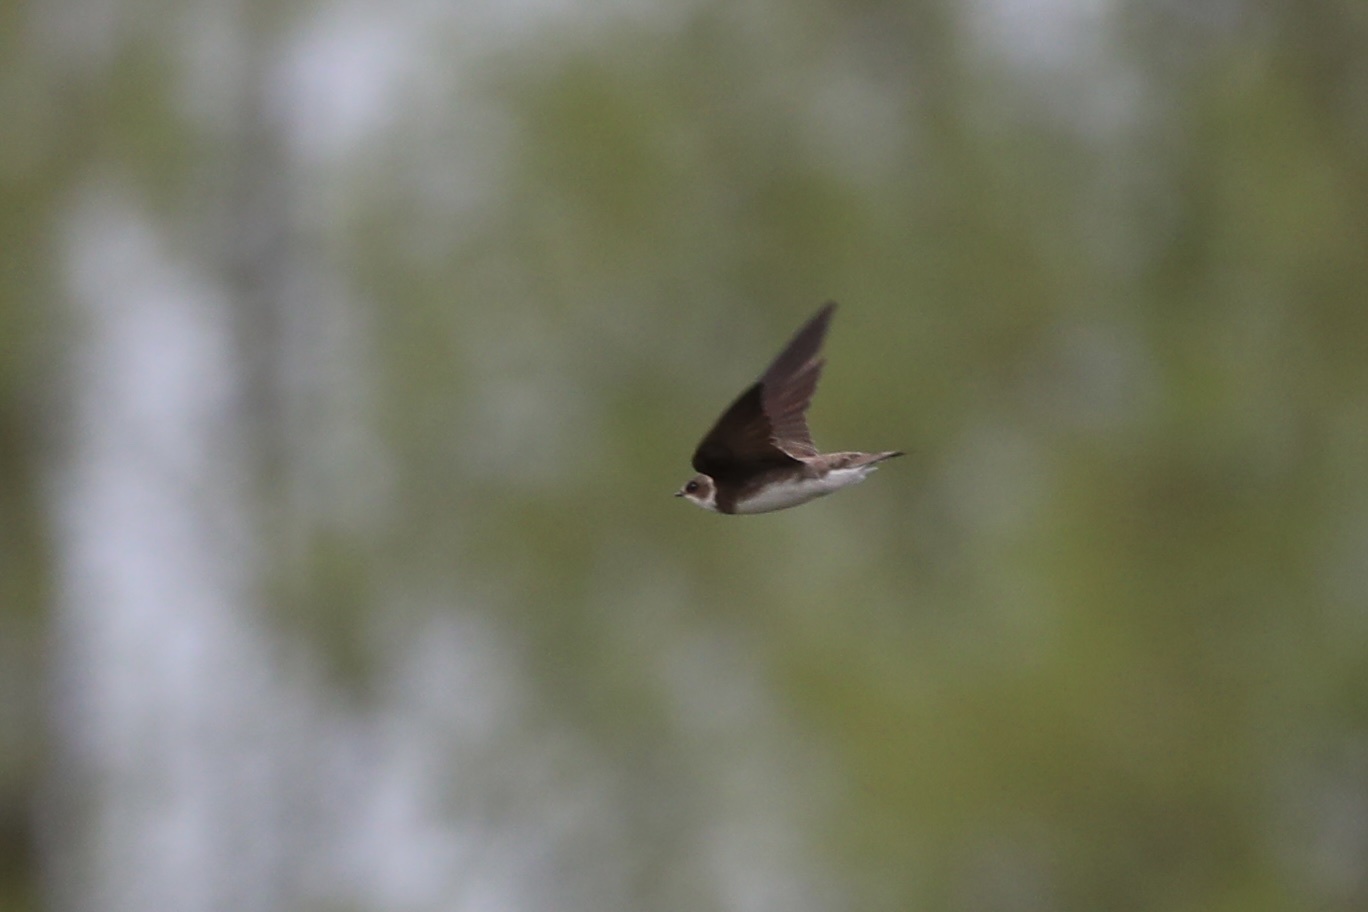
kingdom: Animalia
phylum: Chordata
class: Aves
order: Passeriformes
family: Hirundinidae
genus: Riparia
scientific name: Riparia riparia
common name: Sand martin
